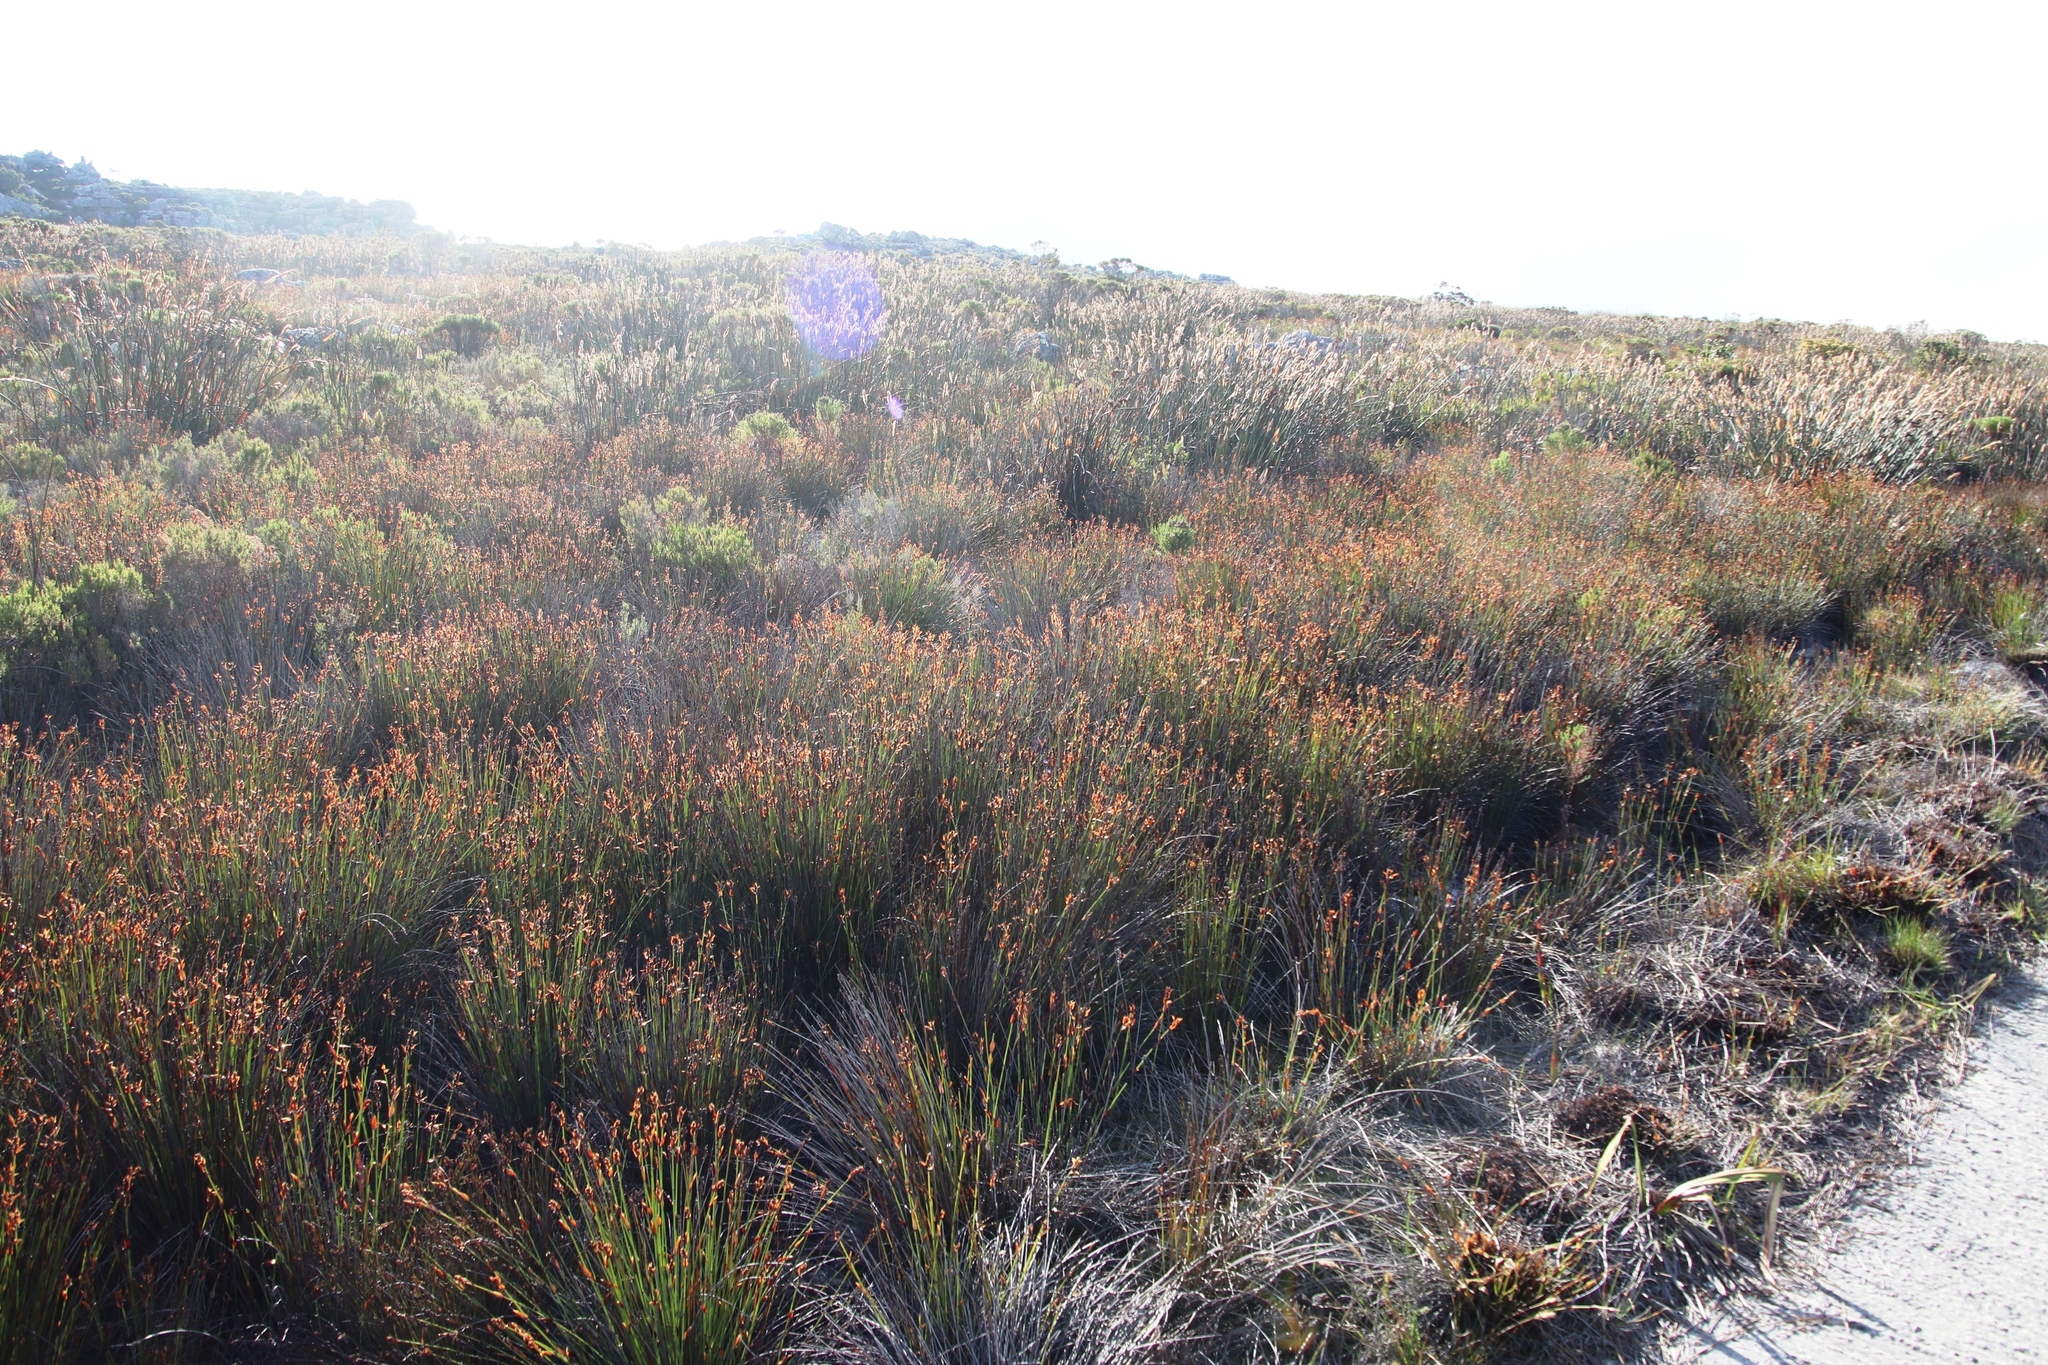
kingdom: Plantae
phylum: Tracheophyta
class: Liliopsida
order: Poales
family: Restionaceae
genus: Elegia
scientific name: Elegia ebracteata
